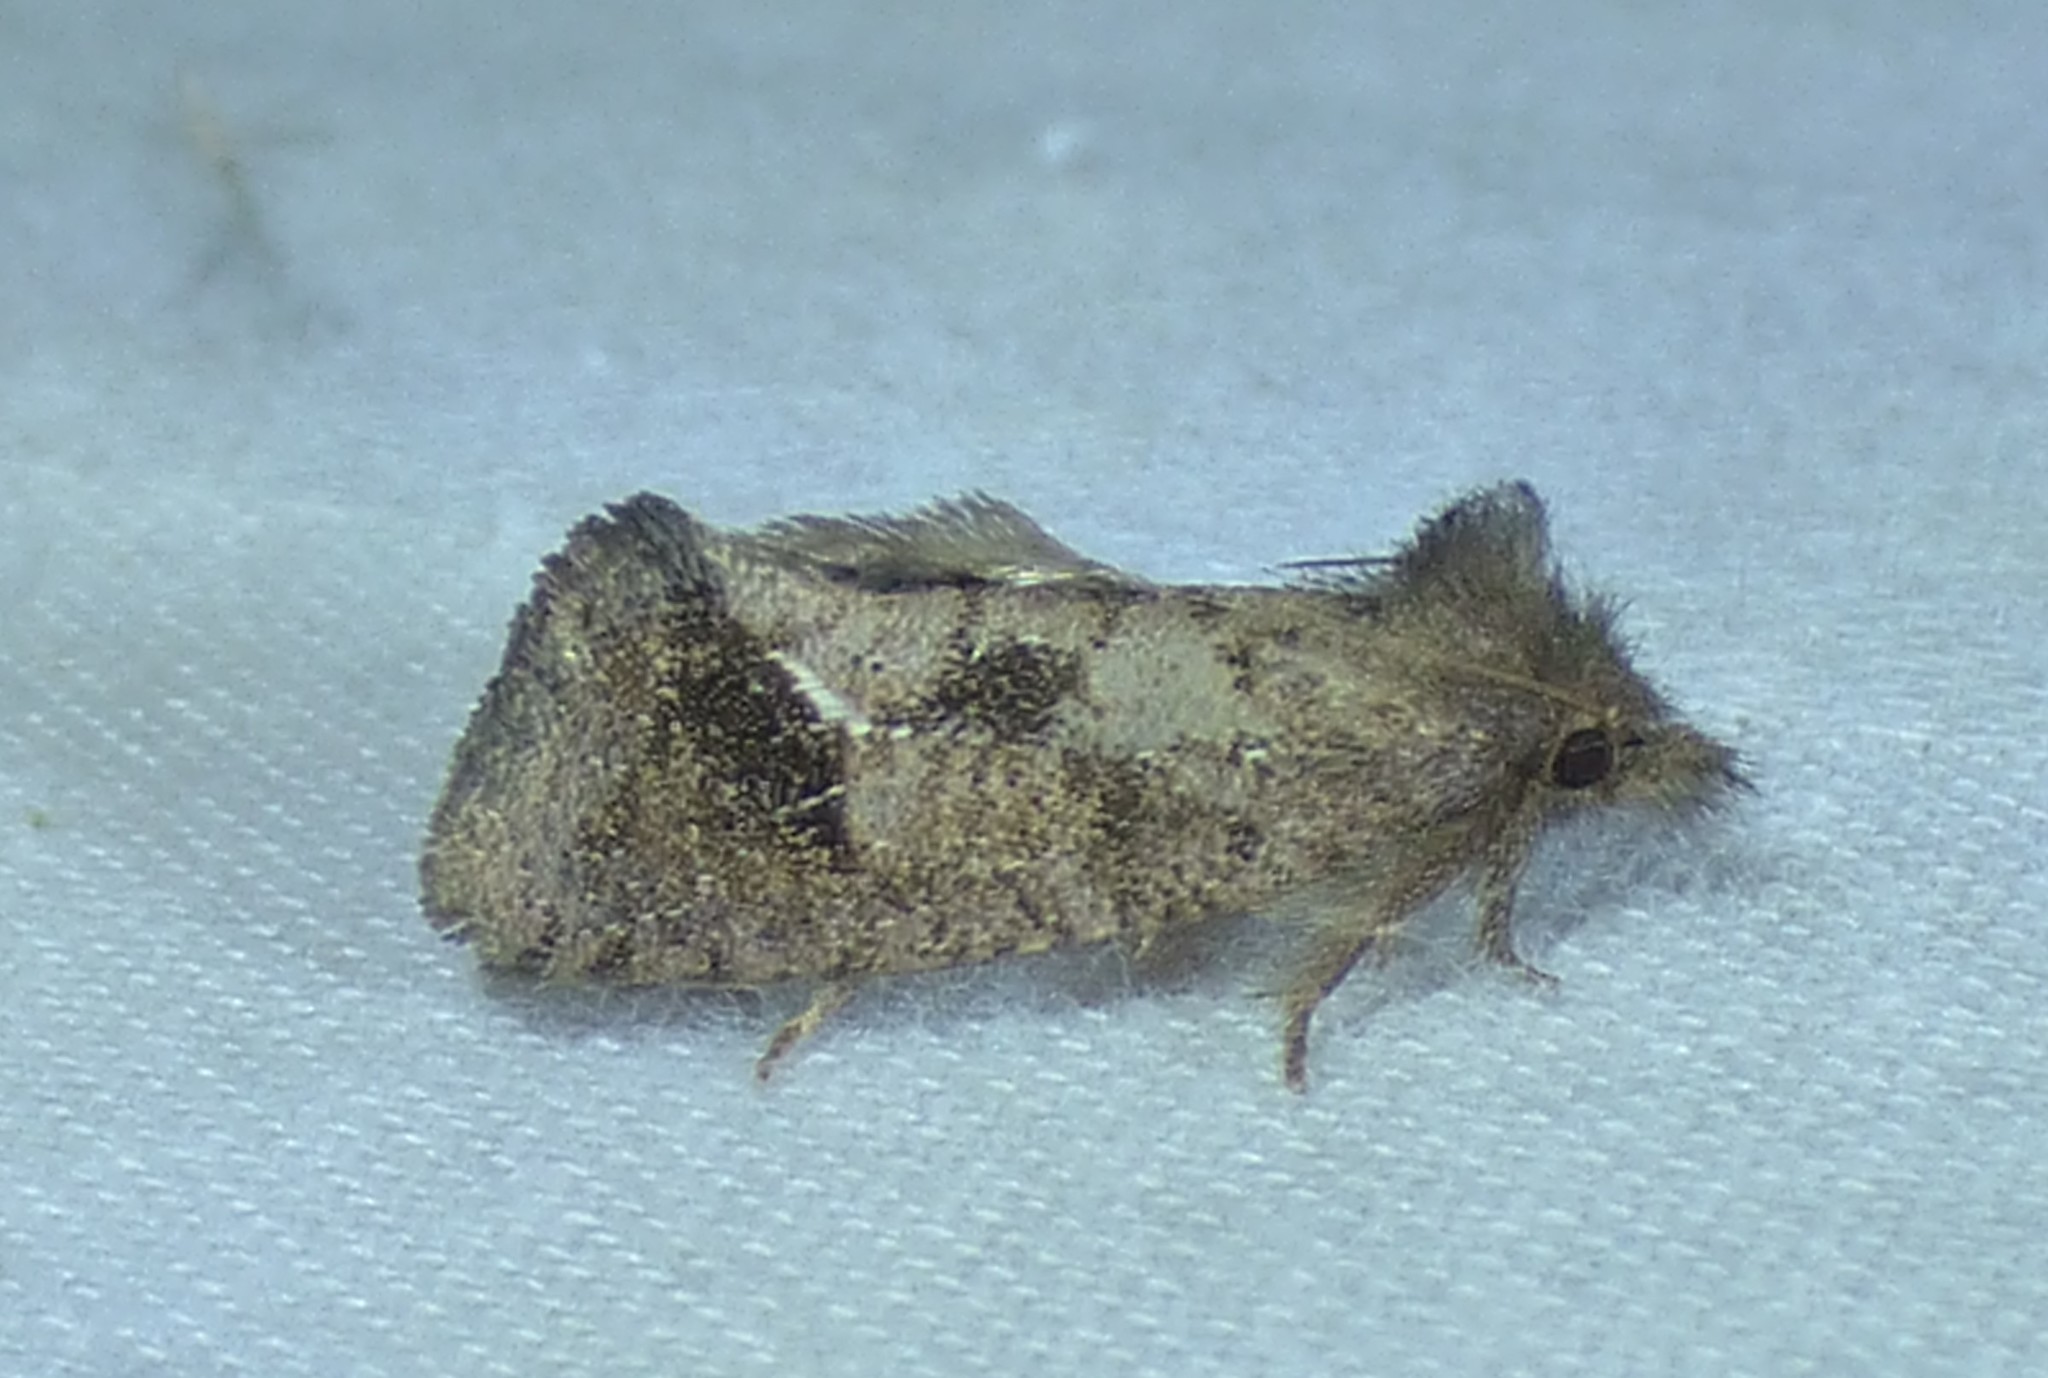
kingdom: Animalia
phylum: Arthropoda
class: Insecta
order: Lepidoptera
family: Tineidae
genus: Acrolophus
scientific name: Acrolophus texanella
